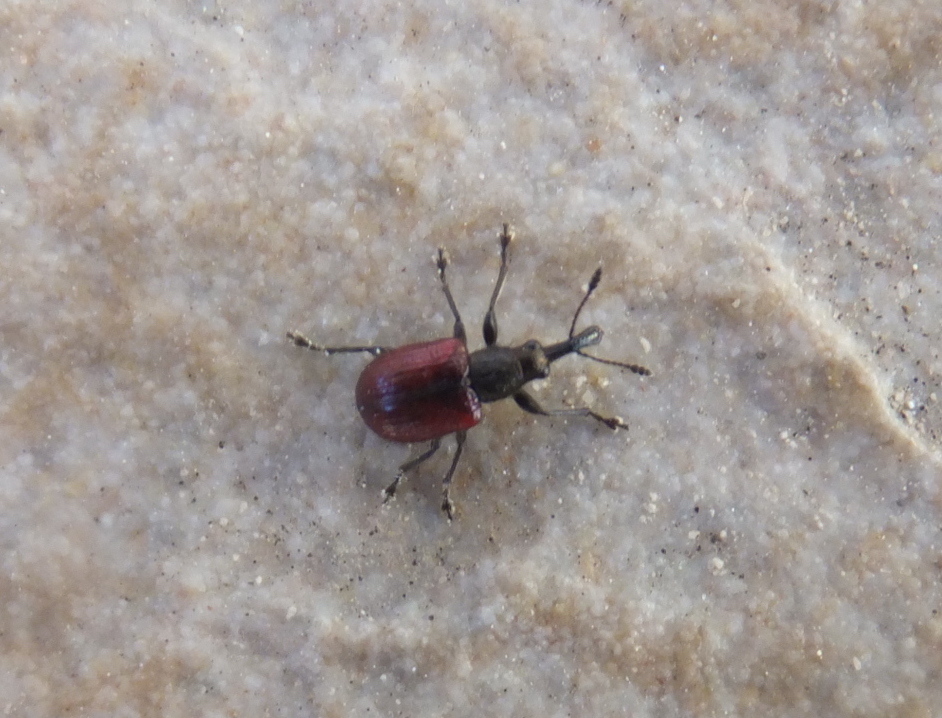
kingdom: Animalia
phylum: Arthropoda
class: Insecta
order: Coleoptera
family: Rhynchitidae
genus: Tatianaerhynchites
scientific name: Tatianaerhynchites aequatus
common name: Apple fruit rhynchites
